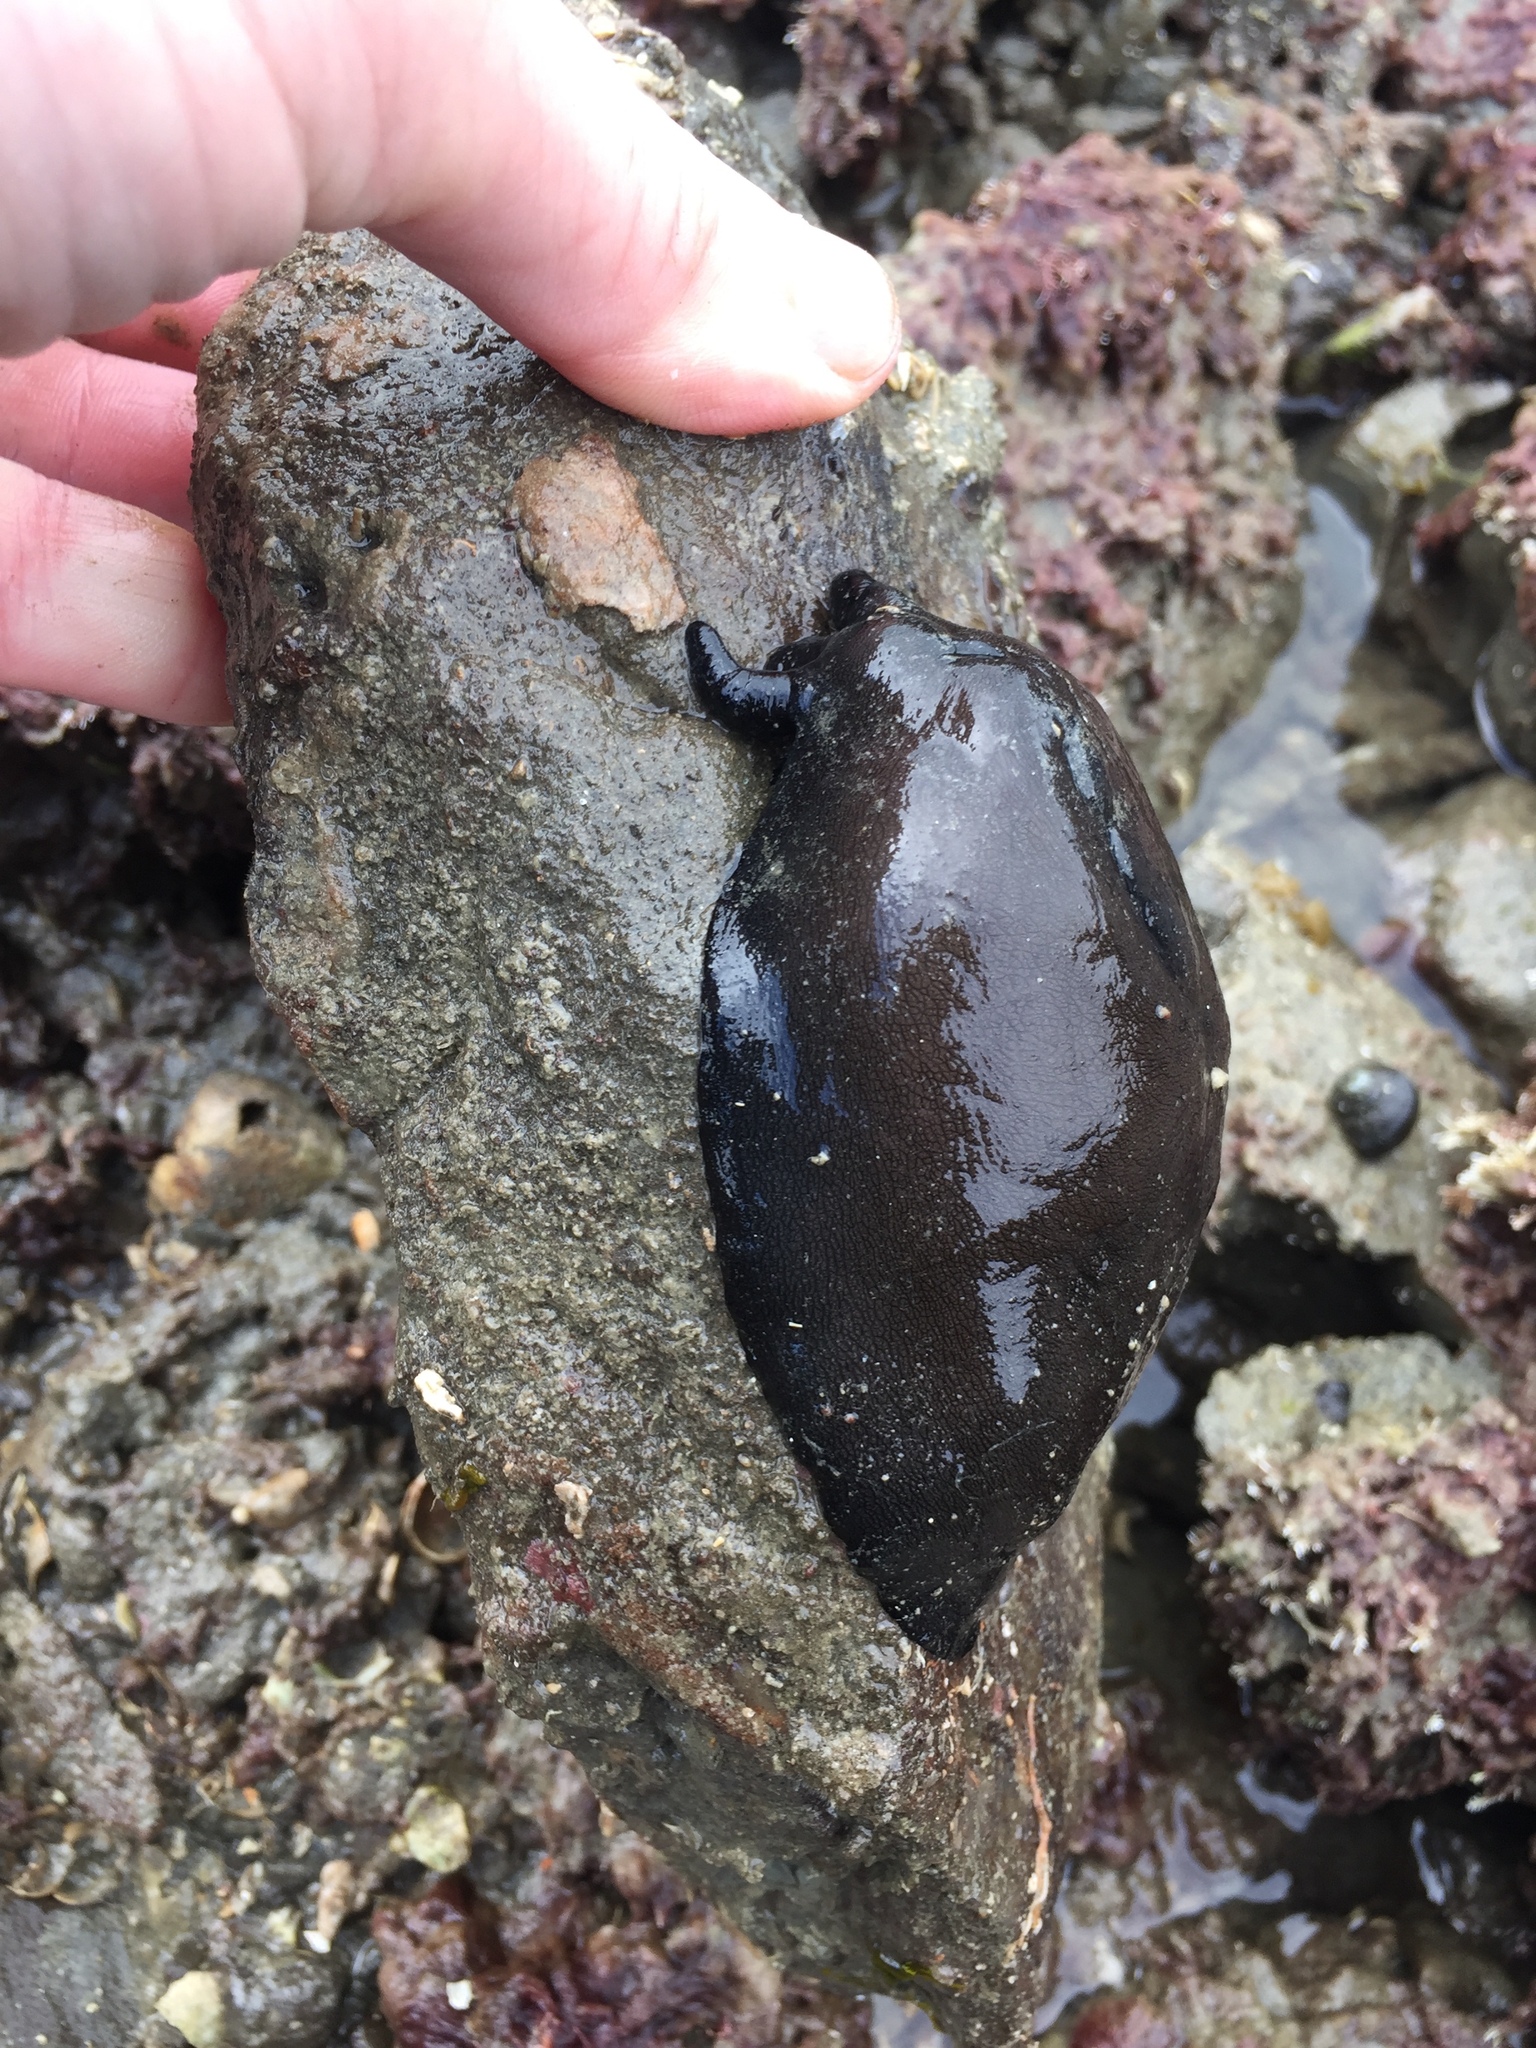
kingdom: Animalia
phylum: Mollusca
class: Gastropoda
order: Lepetellida
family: Fissurellidae
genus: Scutus
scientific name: Scutus breviculus
